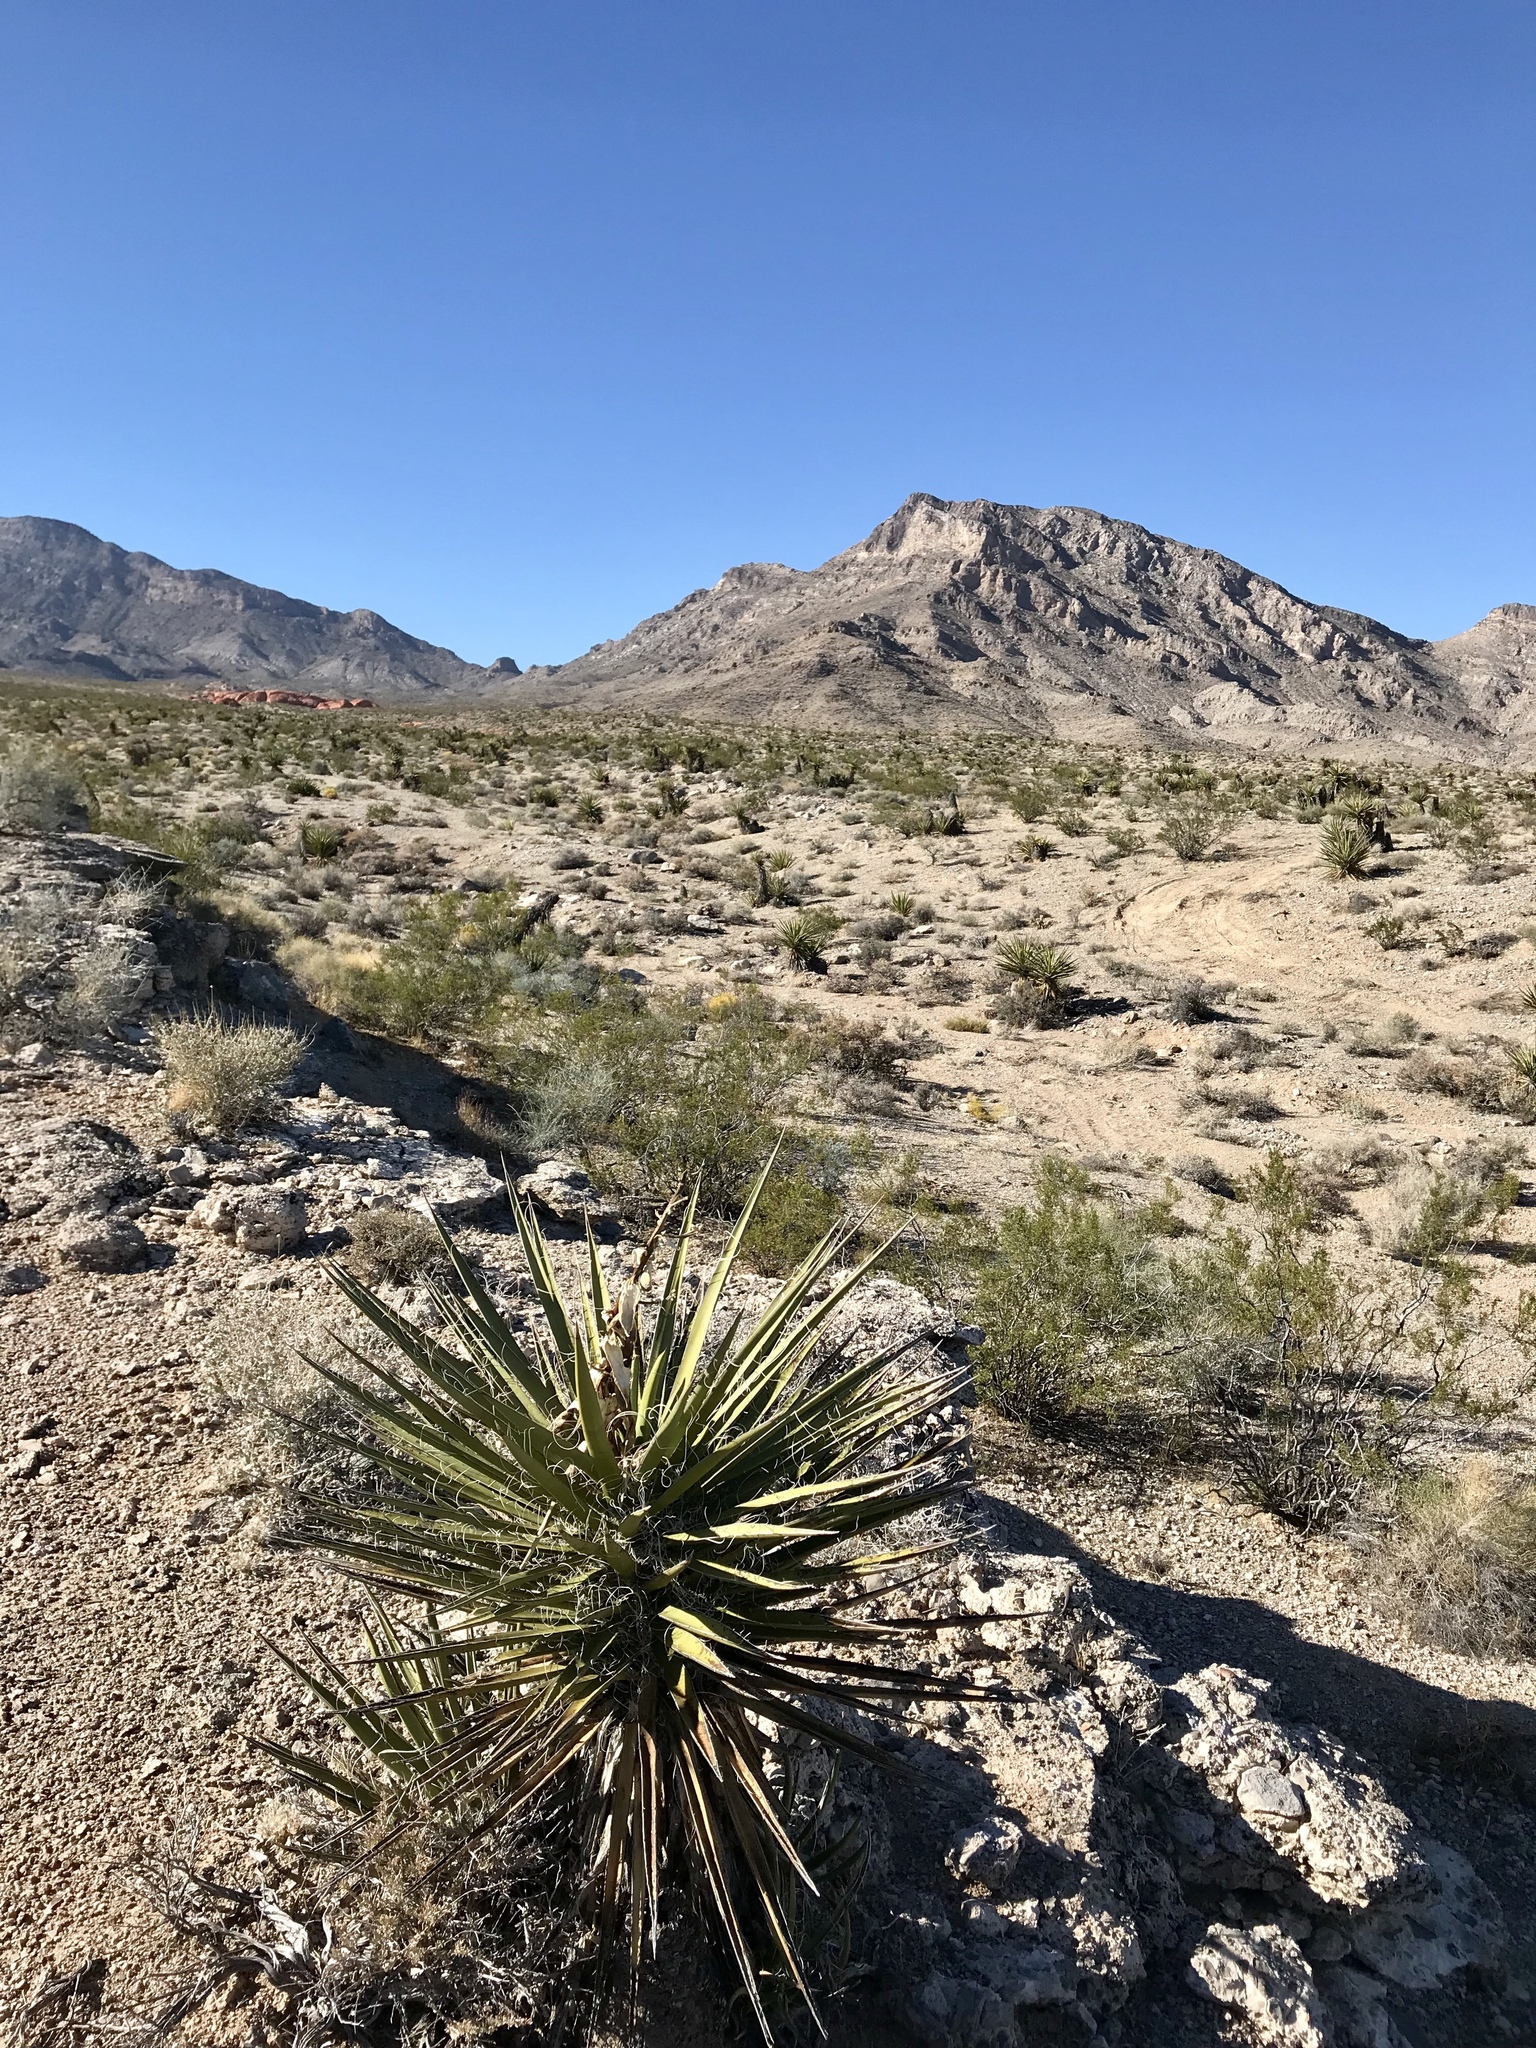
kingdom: Plantae
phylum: Tracheophyta
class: Liliopsida
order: Asparagales
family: Asparagaceae
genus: Yucca
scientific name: Yucca schidigera
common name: Mojave yucca
